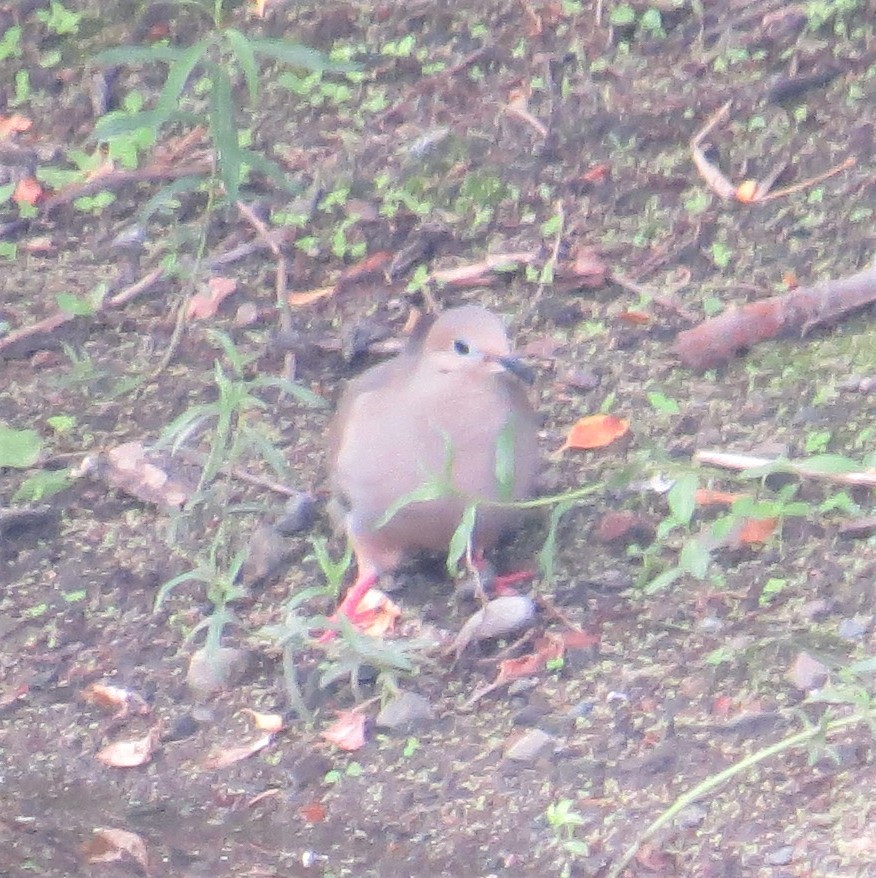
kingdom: Animalia
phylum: Chordata
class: Aves
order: Columbiformes
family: Columbidae
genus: Zenaida
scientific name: Zenaida macroura
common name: Mourning dove
